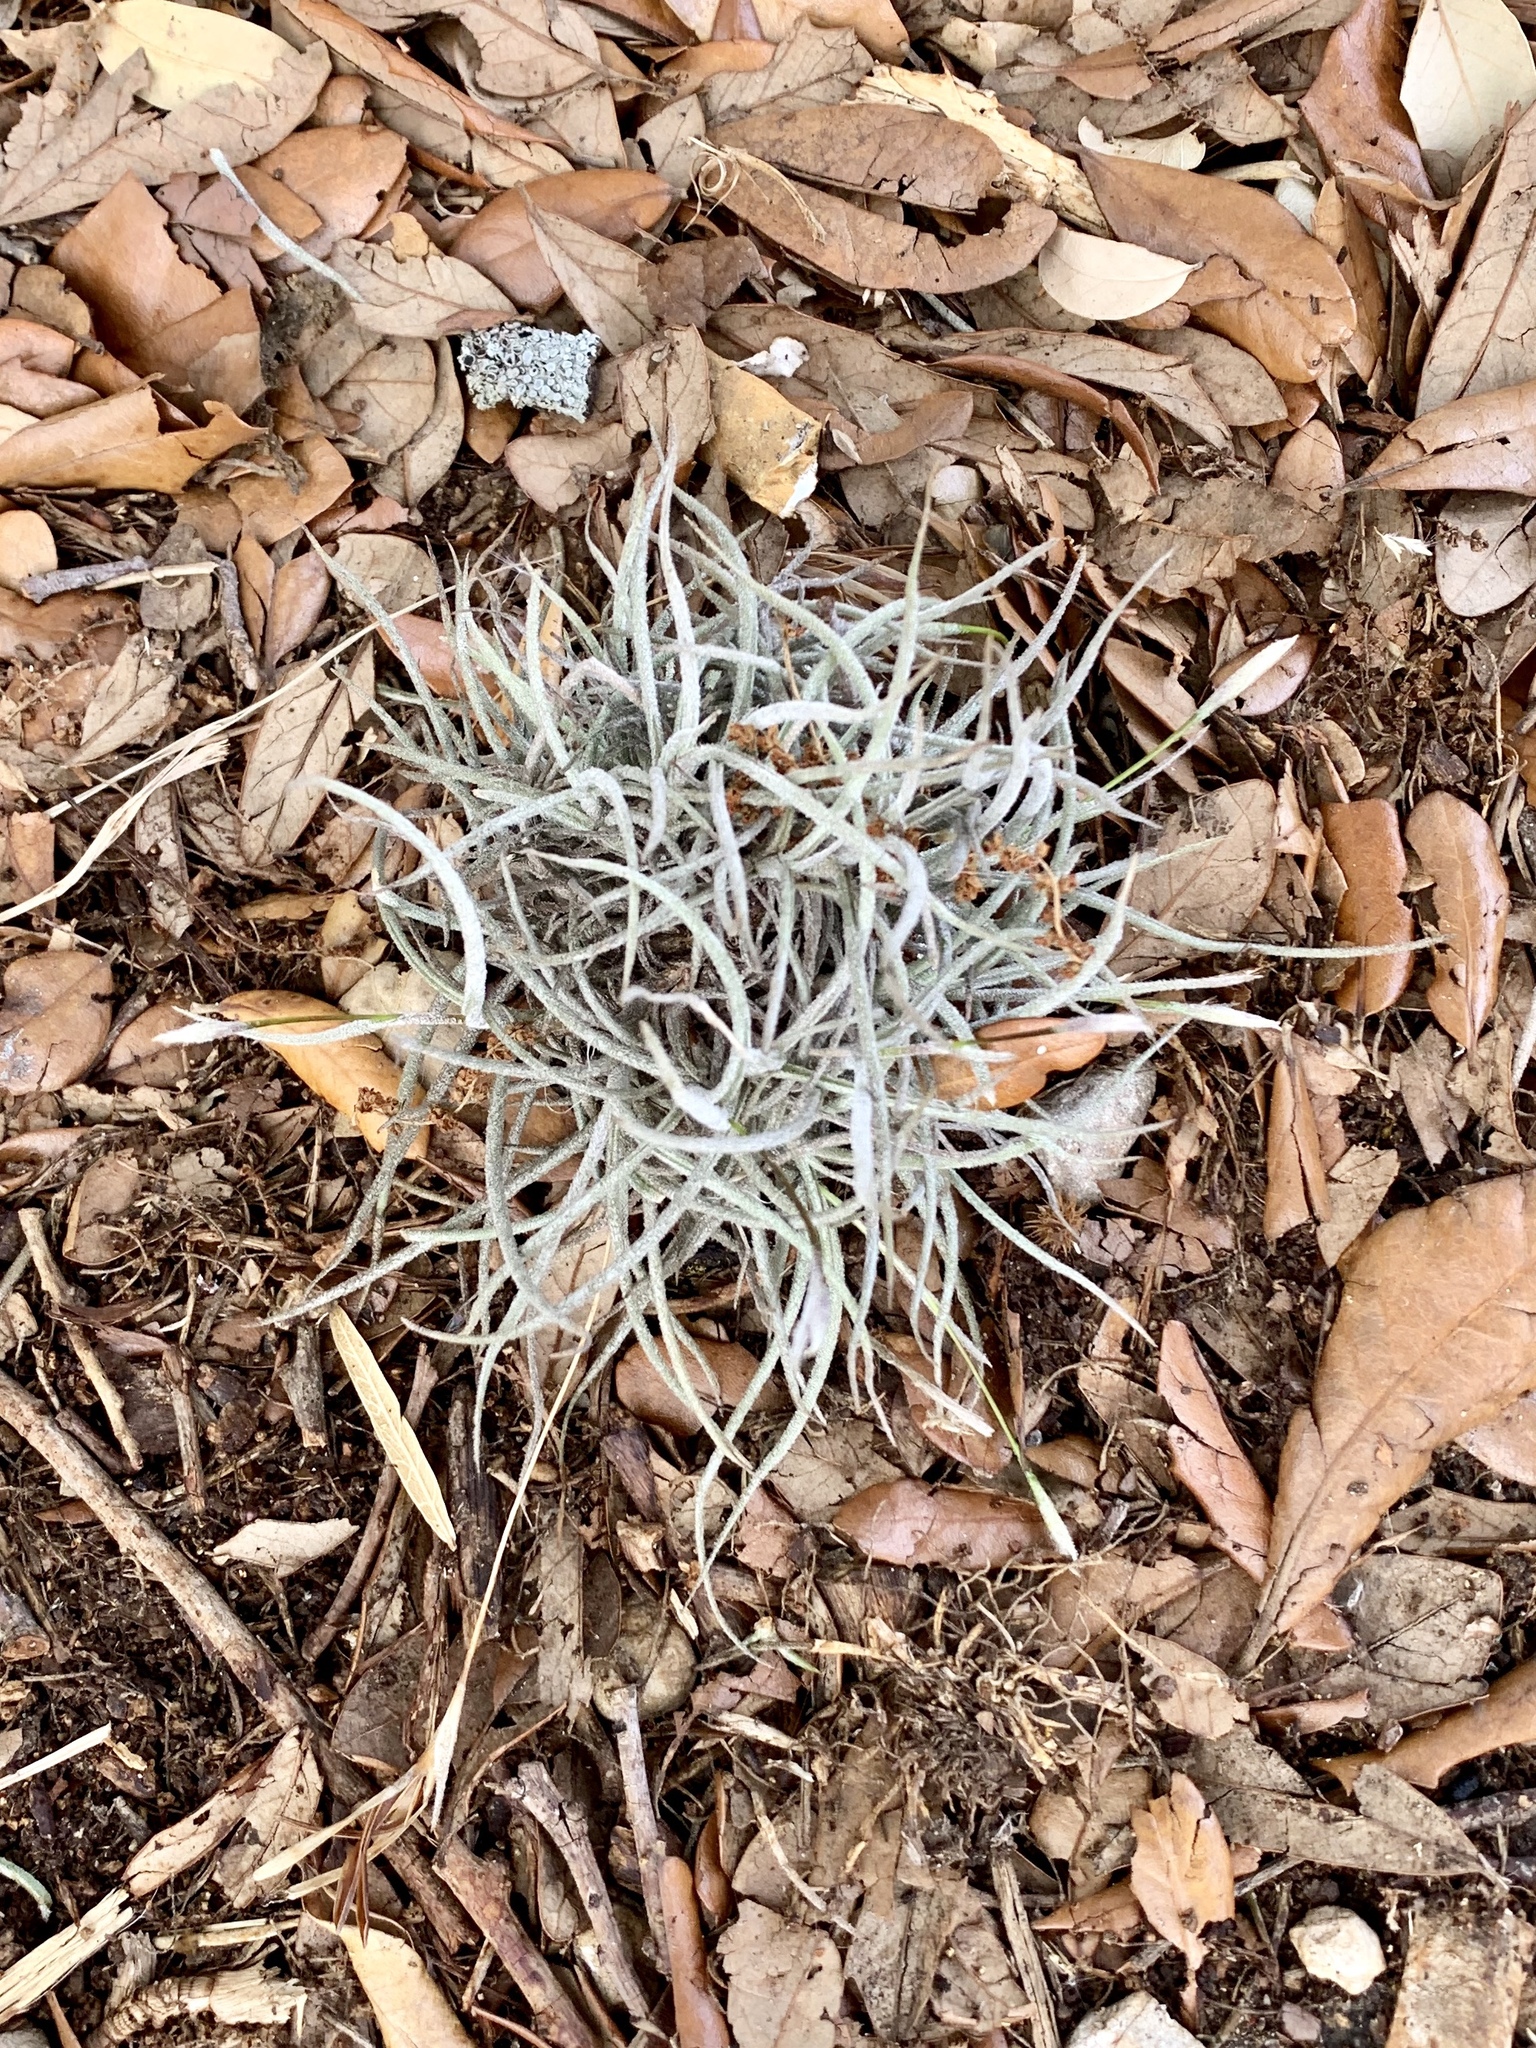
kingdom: Plantae
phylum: Tracheophyta
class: Liliopsida
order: Poales
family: Bromeliaceae
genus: Tillandsia
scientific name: Tillandsia recurvata
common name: Small ballmoss
